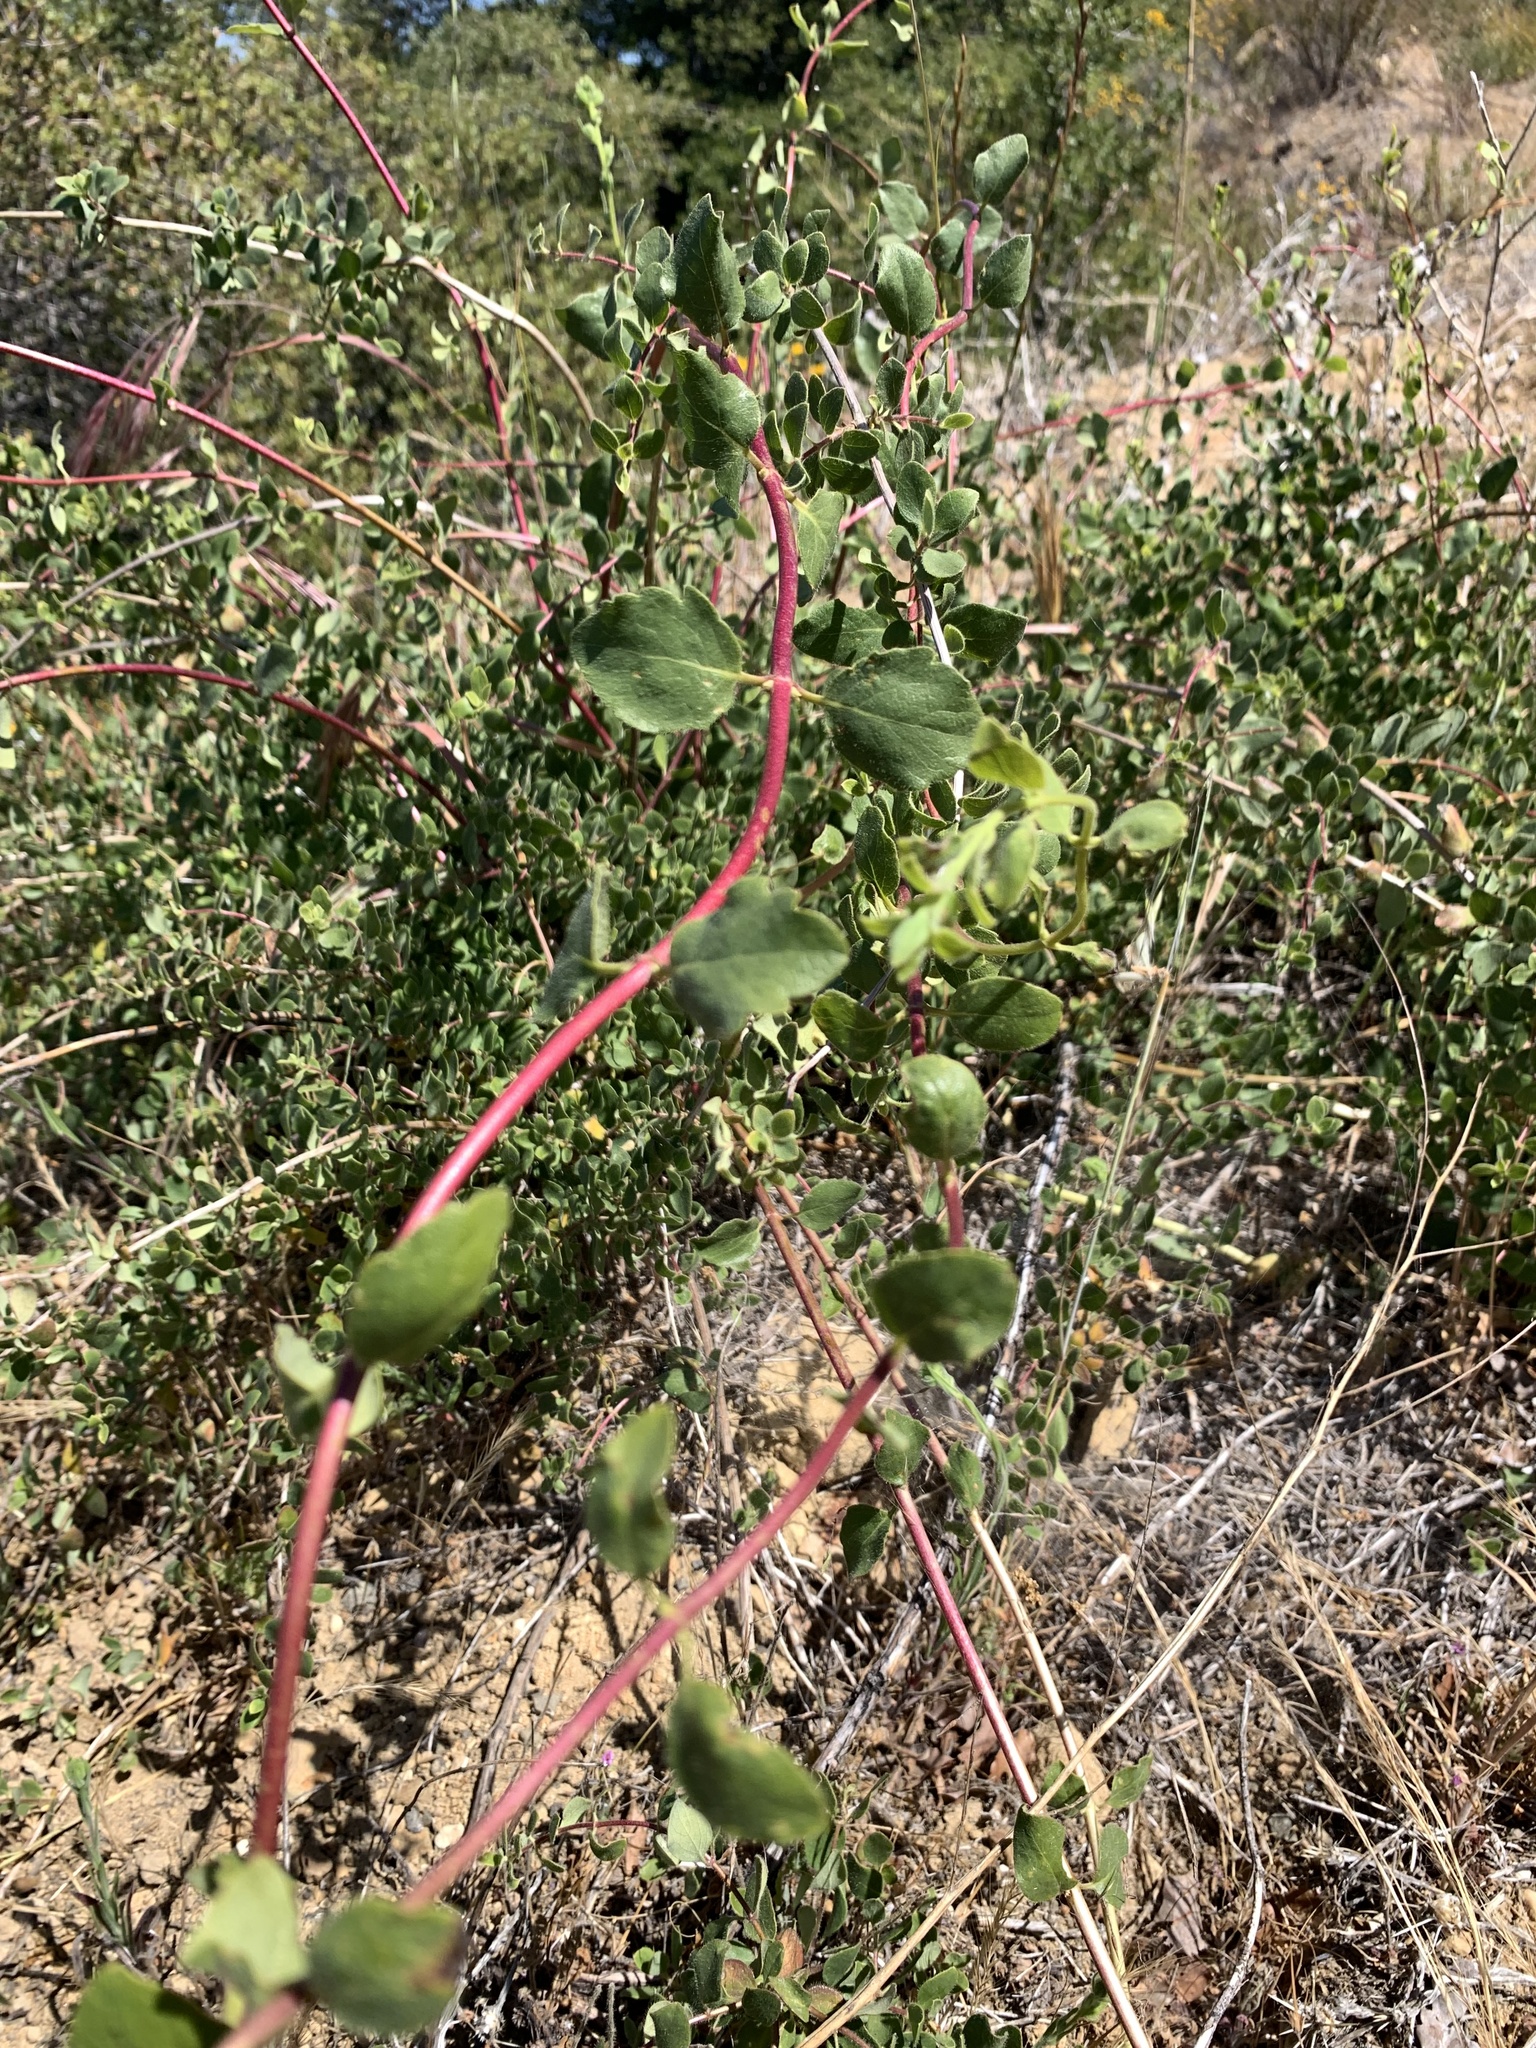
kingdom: Plantae
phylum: Tracheophyta
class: Magnoliopsida
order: Dipsacales
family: Caprifoliaceae
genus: Lonicera
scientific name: Lonicera subspicata
